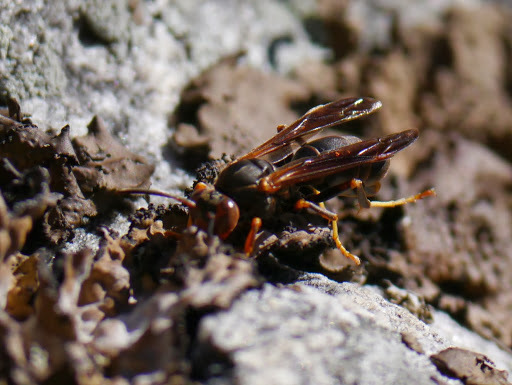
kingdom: Animalia
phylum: Arthropoda
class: Insecta
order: Hymenoptera
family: Vespidae
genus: Fuscopolistes
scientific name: Fuscopolistes
